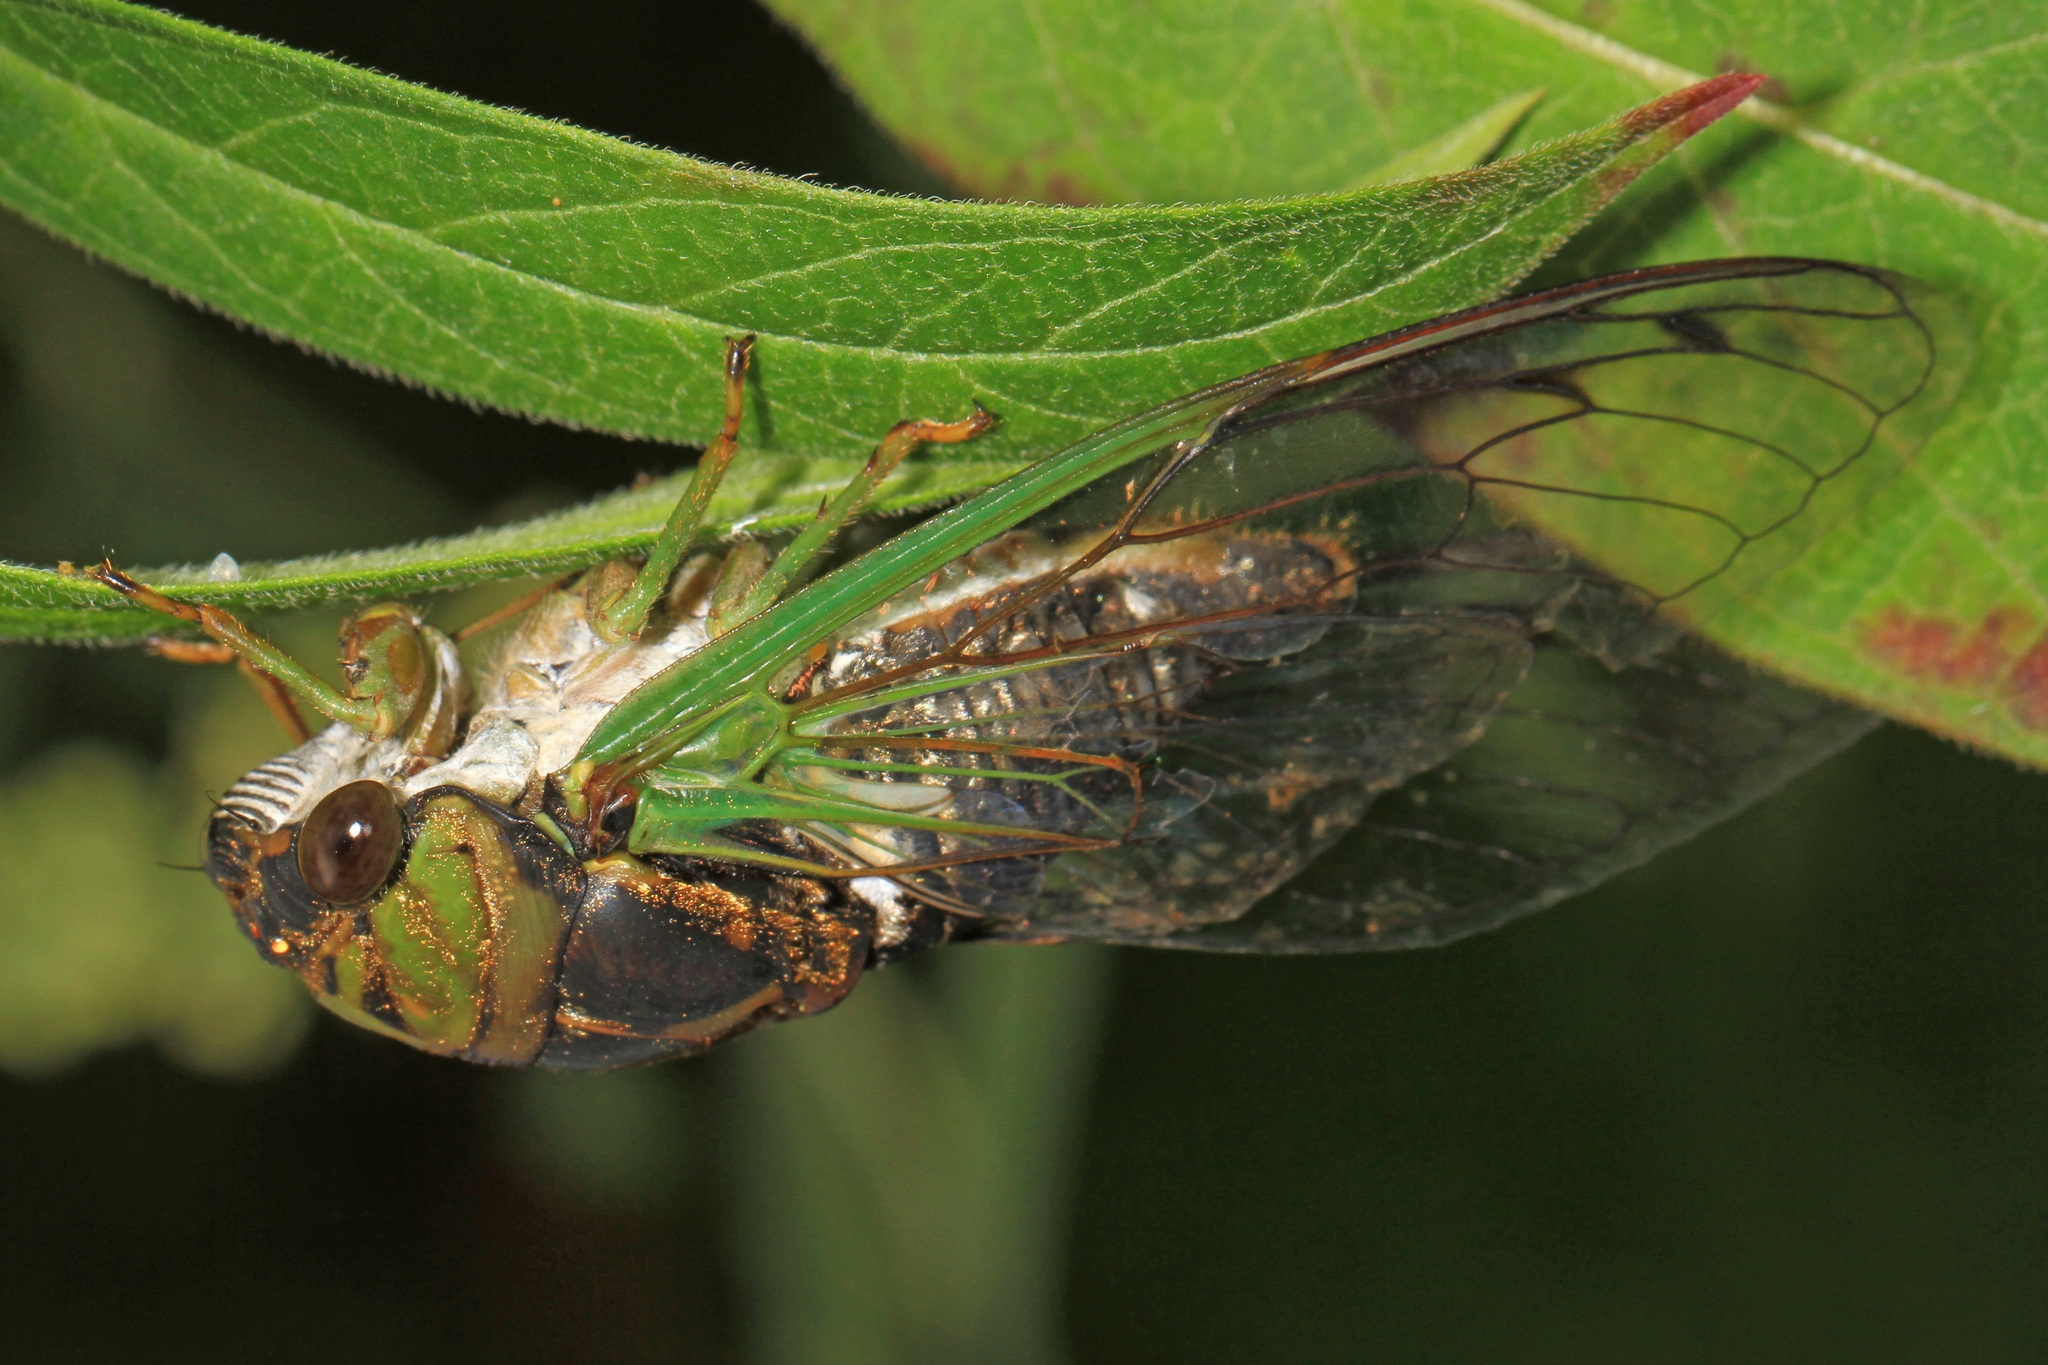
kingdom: Animalia
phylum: Arthropoda
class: Insecta
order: Hemiptera
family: Cicadidae
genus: Neotibicen
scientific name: Neotibicen tibicen
